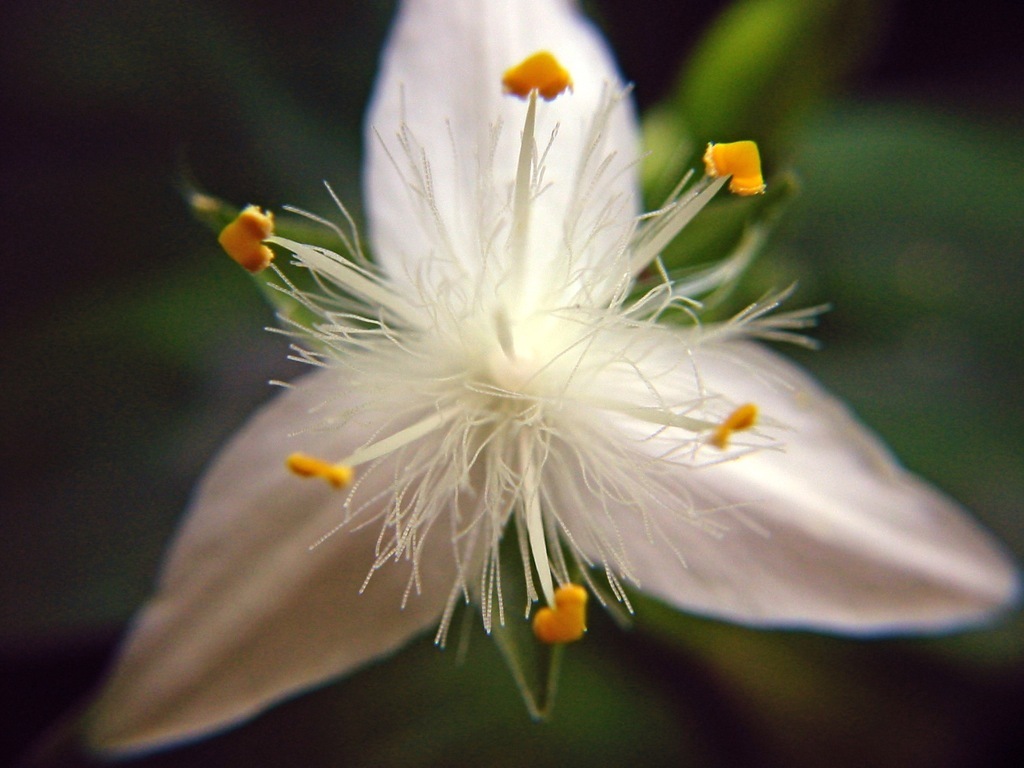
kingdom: Plantae
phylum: Tracheophyta
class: Liliopsida
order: Commelinales
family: Commelinaceae
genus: Tradescantia
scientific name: Tradescantia fluminensis
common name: Wandering-jew
